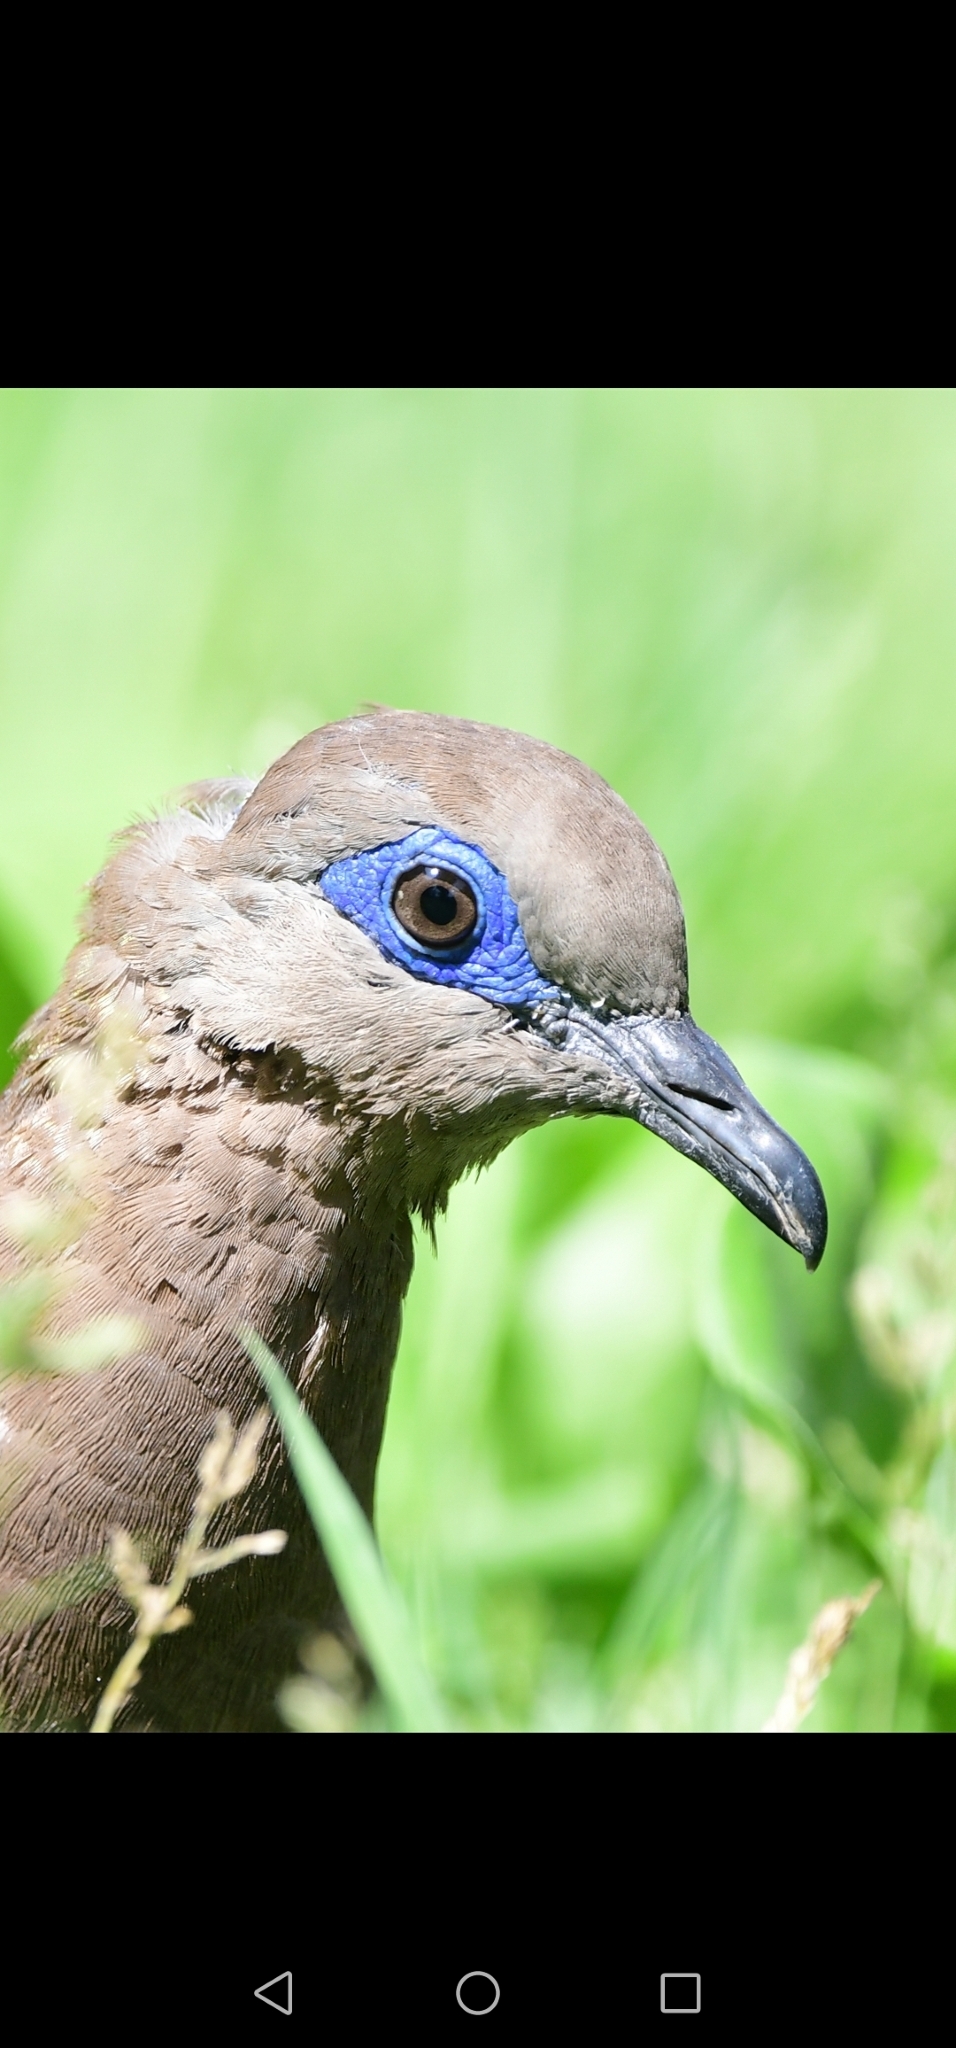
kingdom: Animalia
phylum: Chordata
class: Aves
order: Columbiformes
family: Columbidae
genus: Zenaida
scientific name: Zenaida meloda
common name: West peruvian dove
